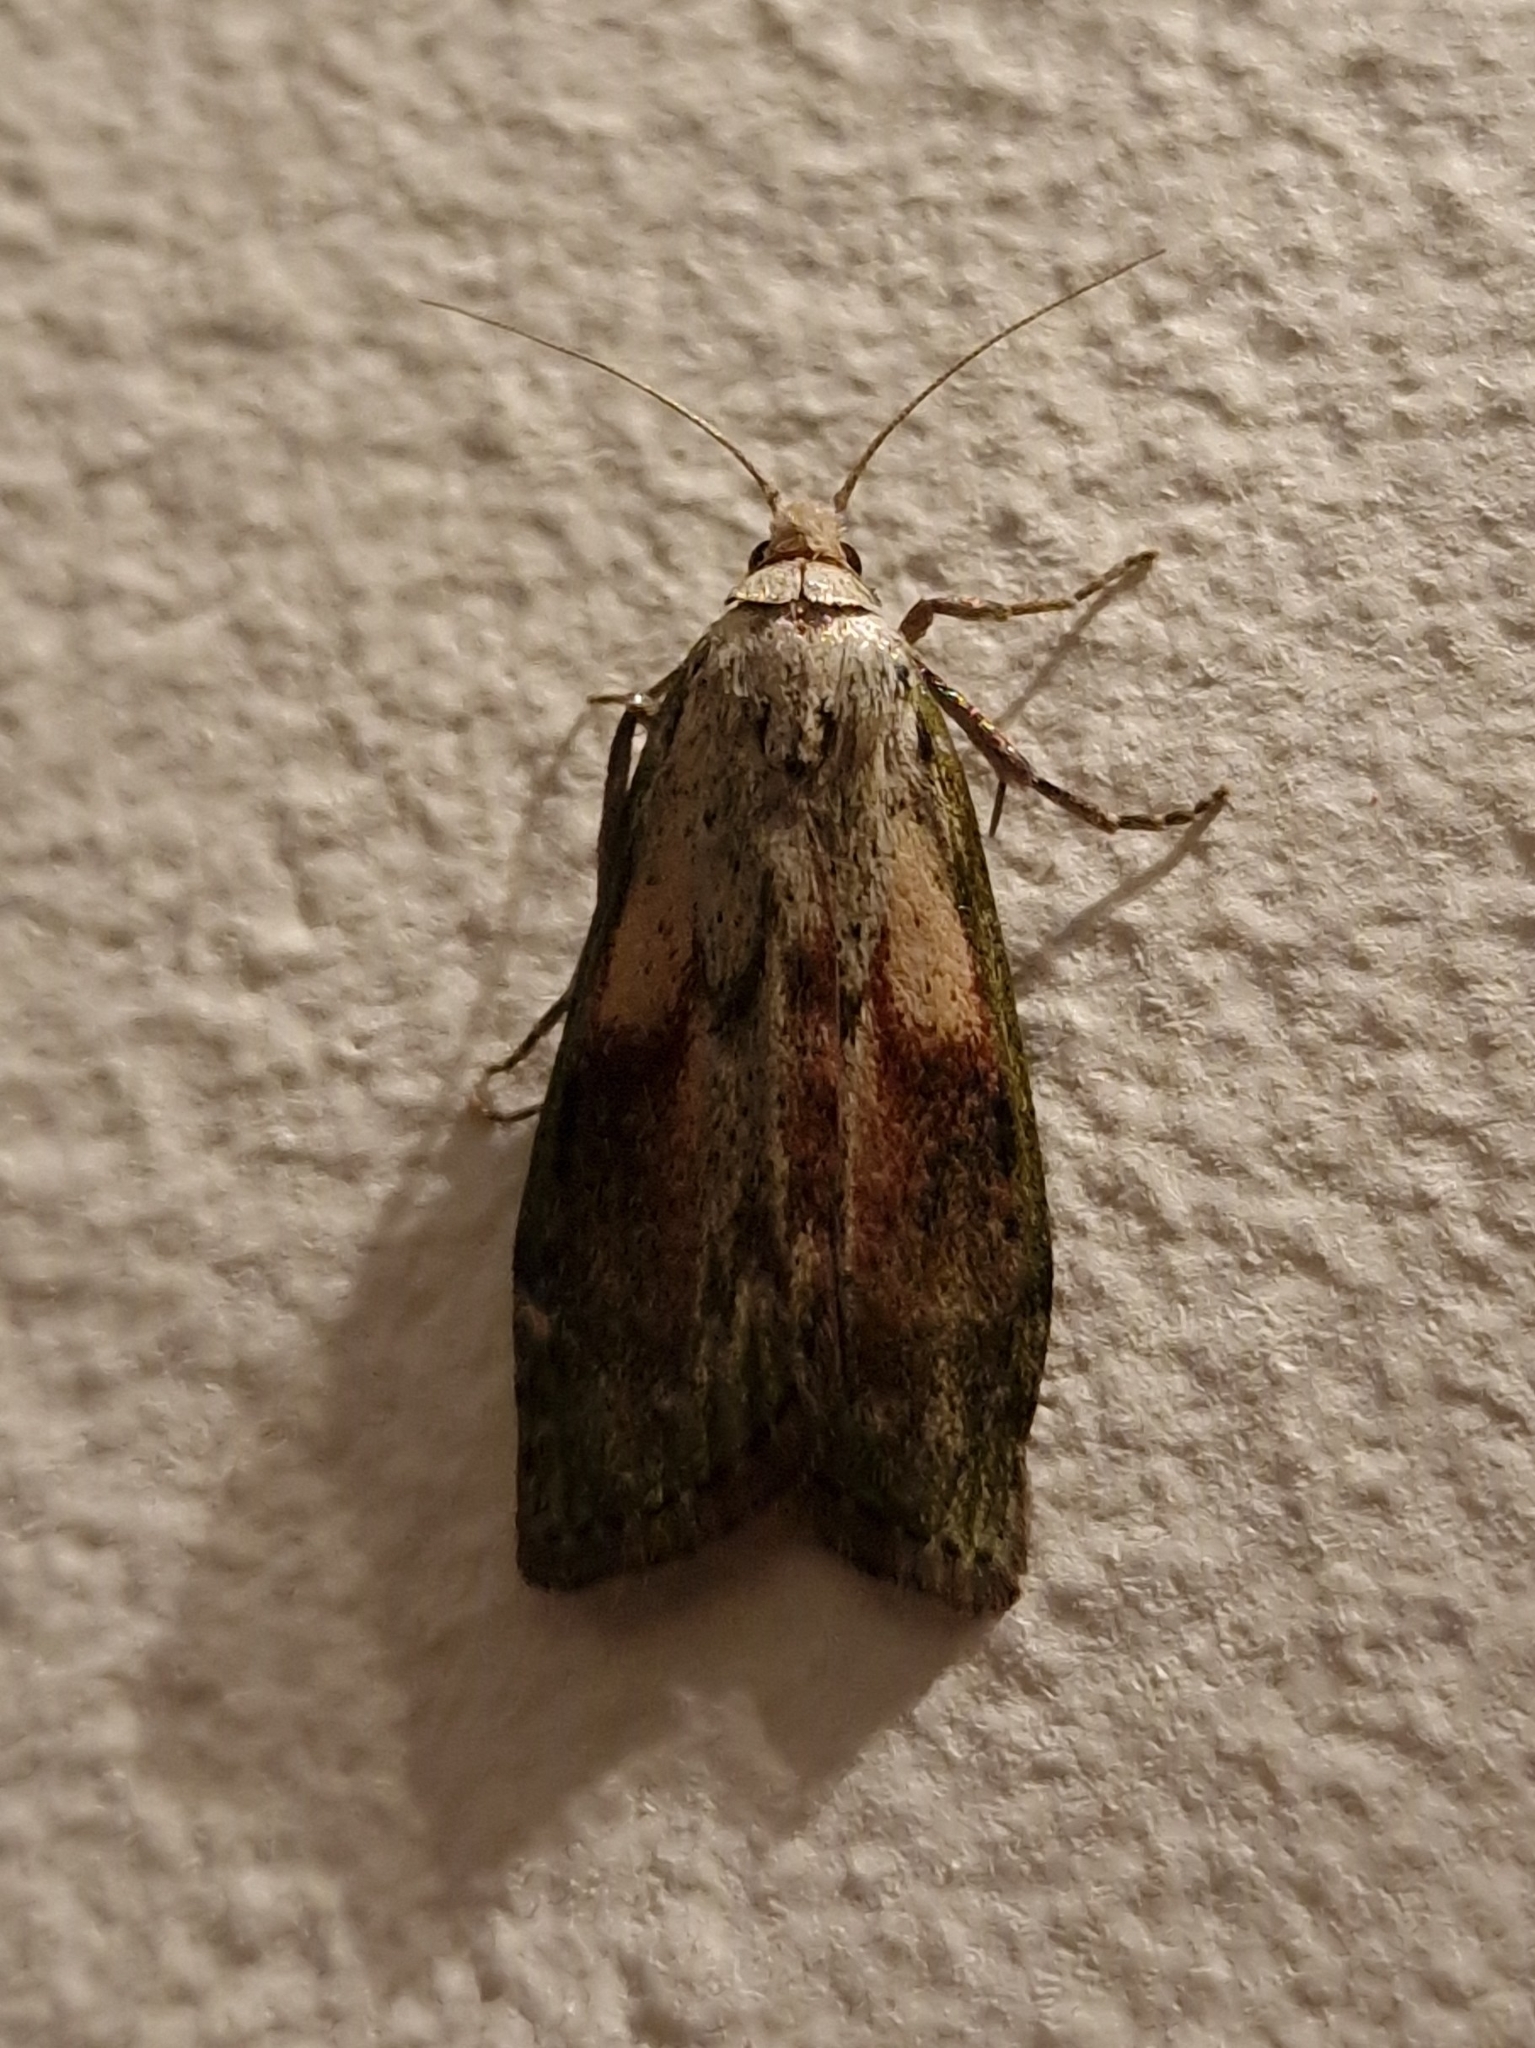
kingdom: Animalia
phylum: Arthropoda
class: Insecta
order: Lepidoptera
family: Pyralidae
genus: Aphomia
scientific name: Aphomia sociella
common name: Bee moth
